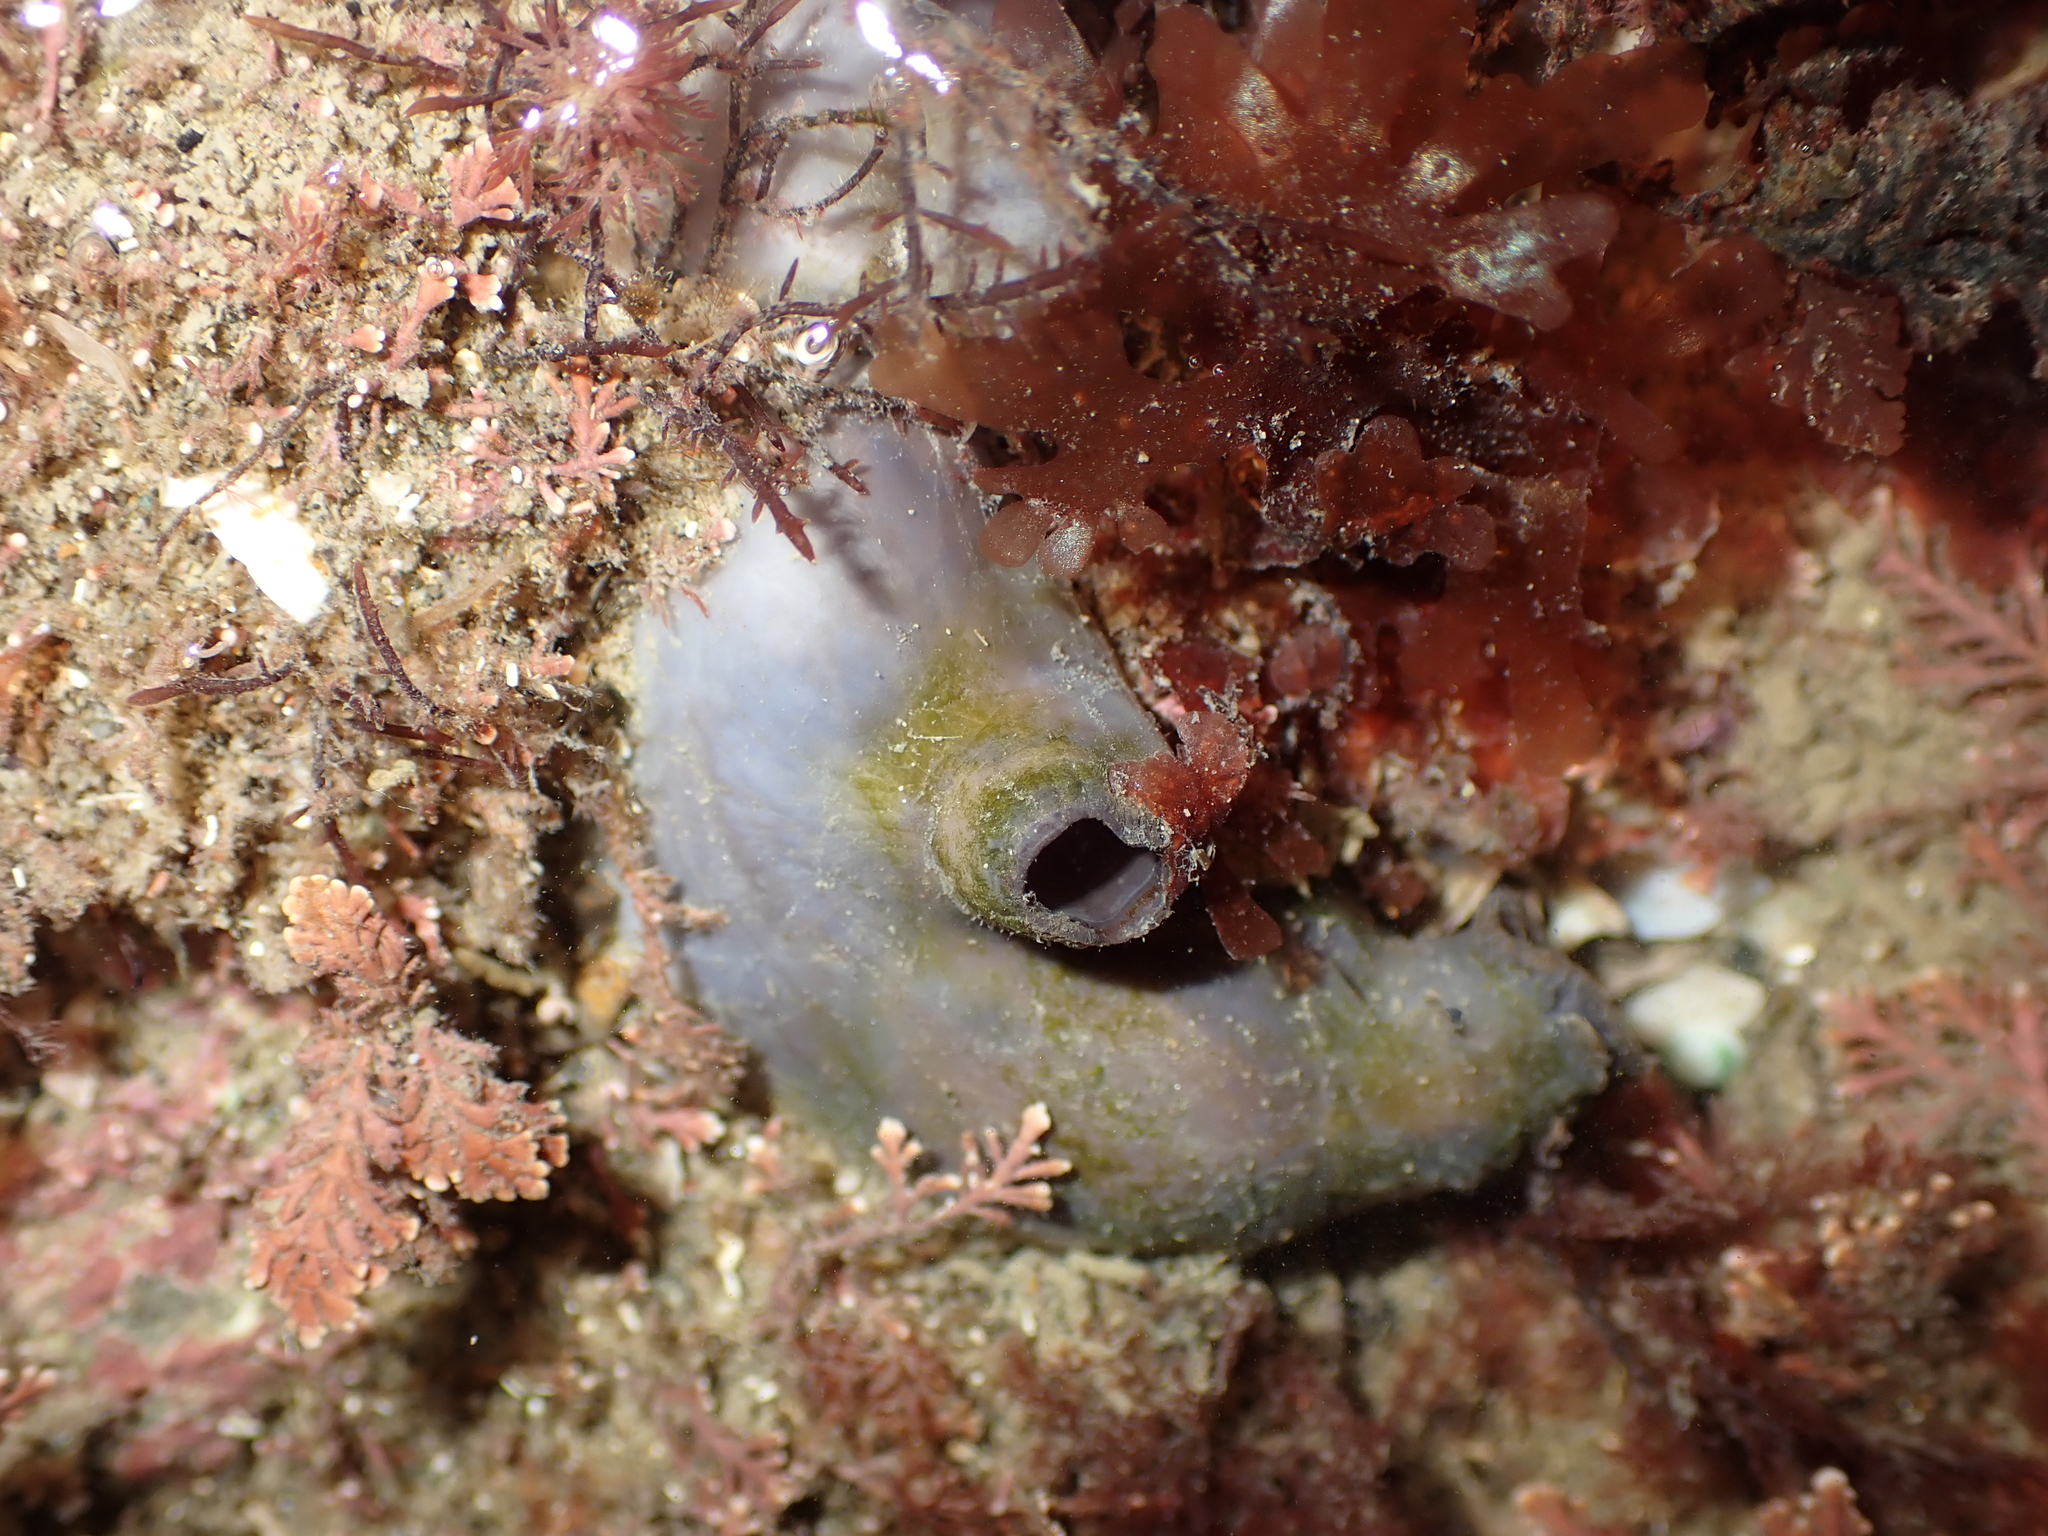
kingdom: Animalia
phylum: Chordata
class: Ascidiacea
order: Stolidobranchia
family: Styelidae
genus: Asterocarpa
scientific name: Asterocarpa coerulea
